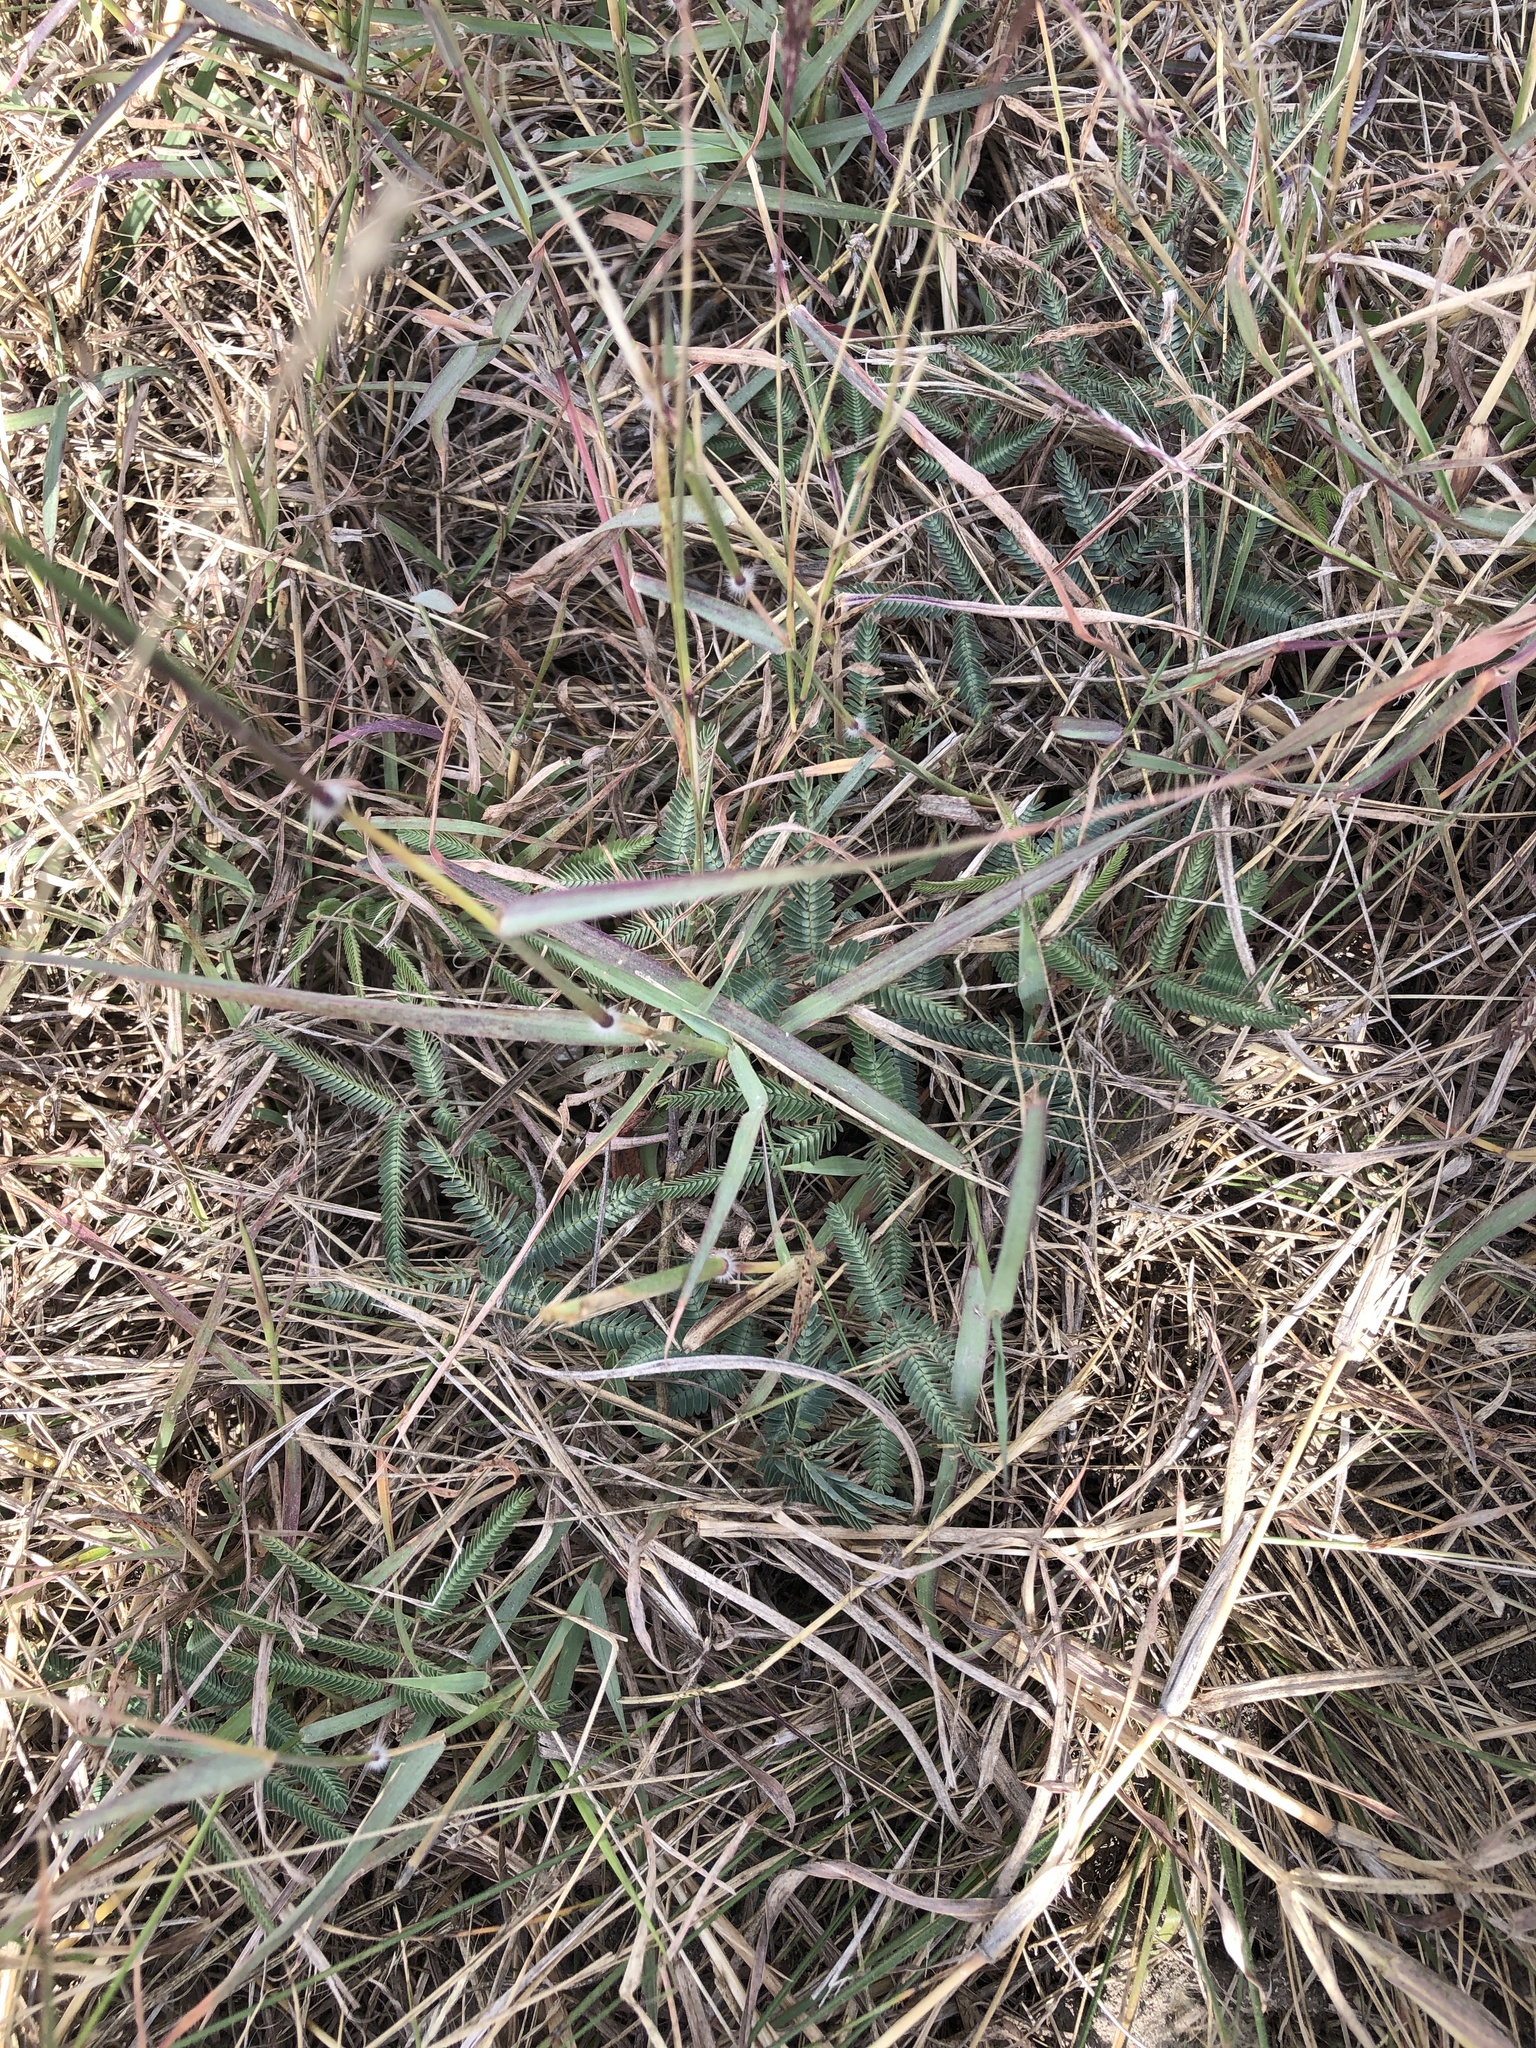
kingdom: Plantae
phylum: Tracheophyta
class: Magnoliopsida
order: Fabales
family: Fabaceae
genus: Neptunia
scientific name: Neptunia pubescens
